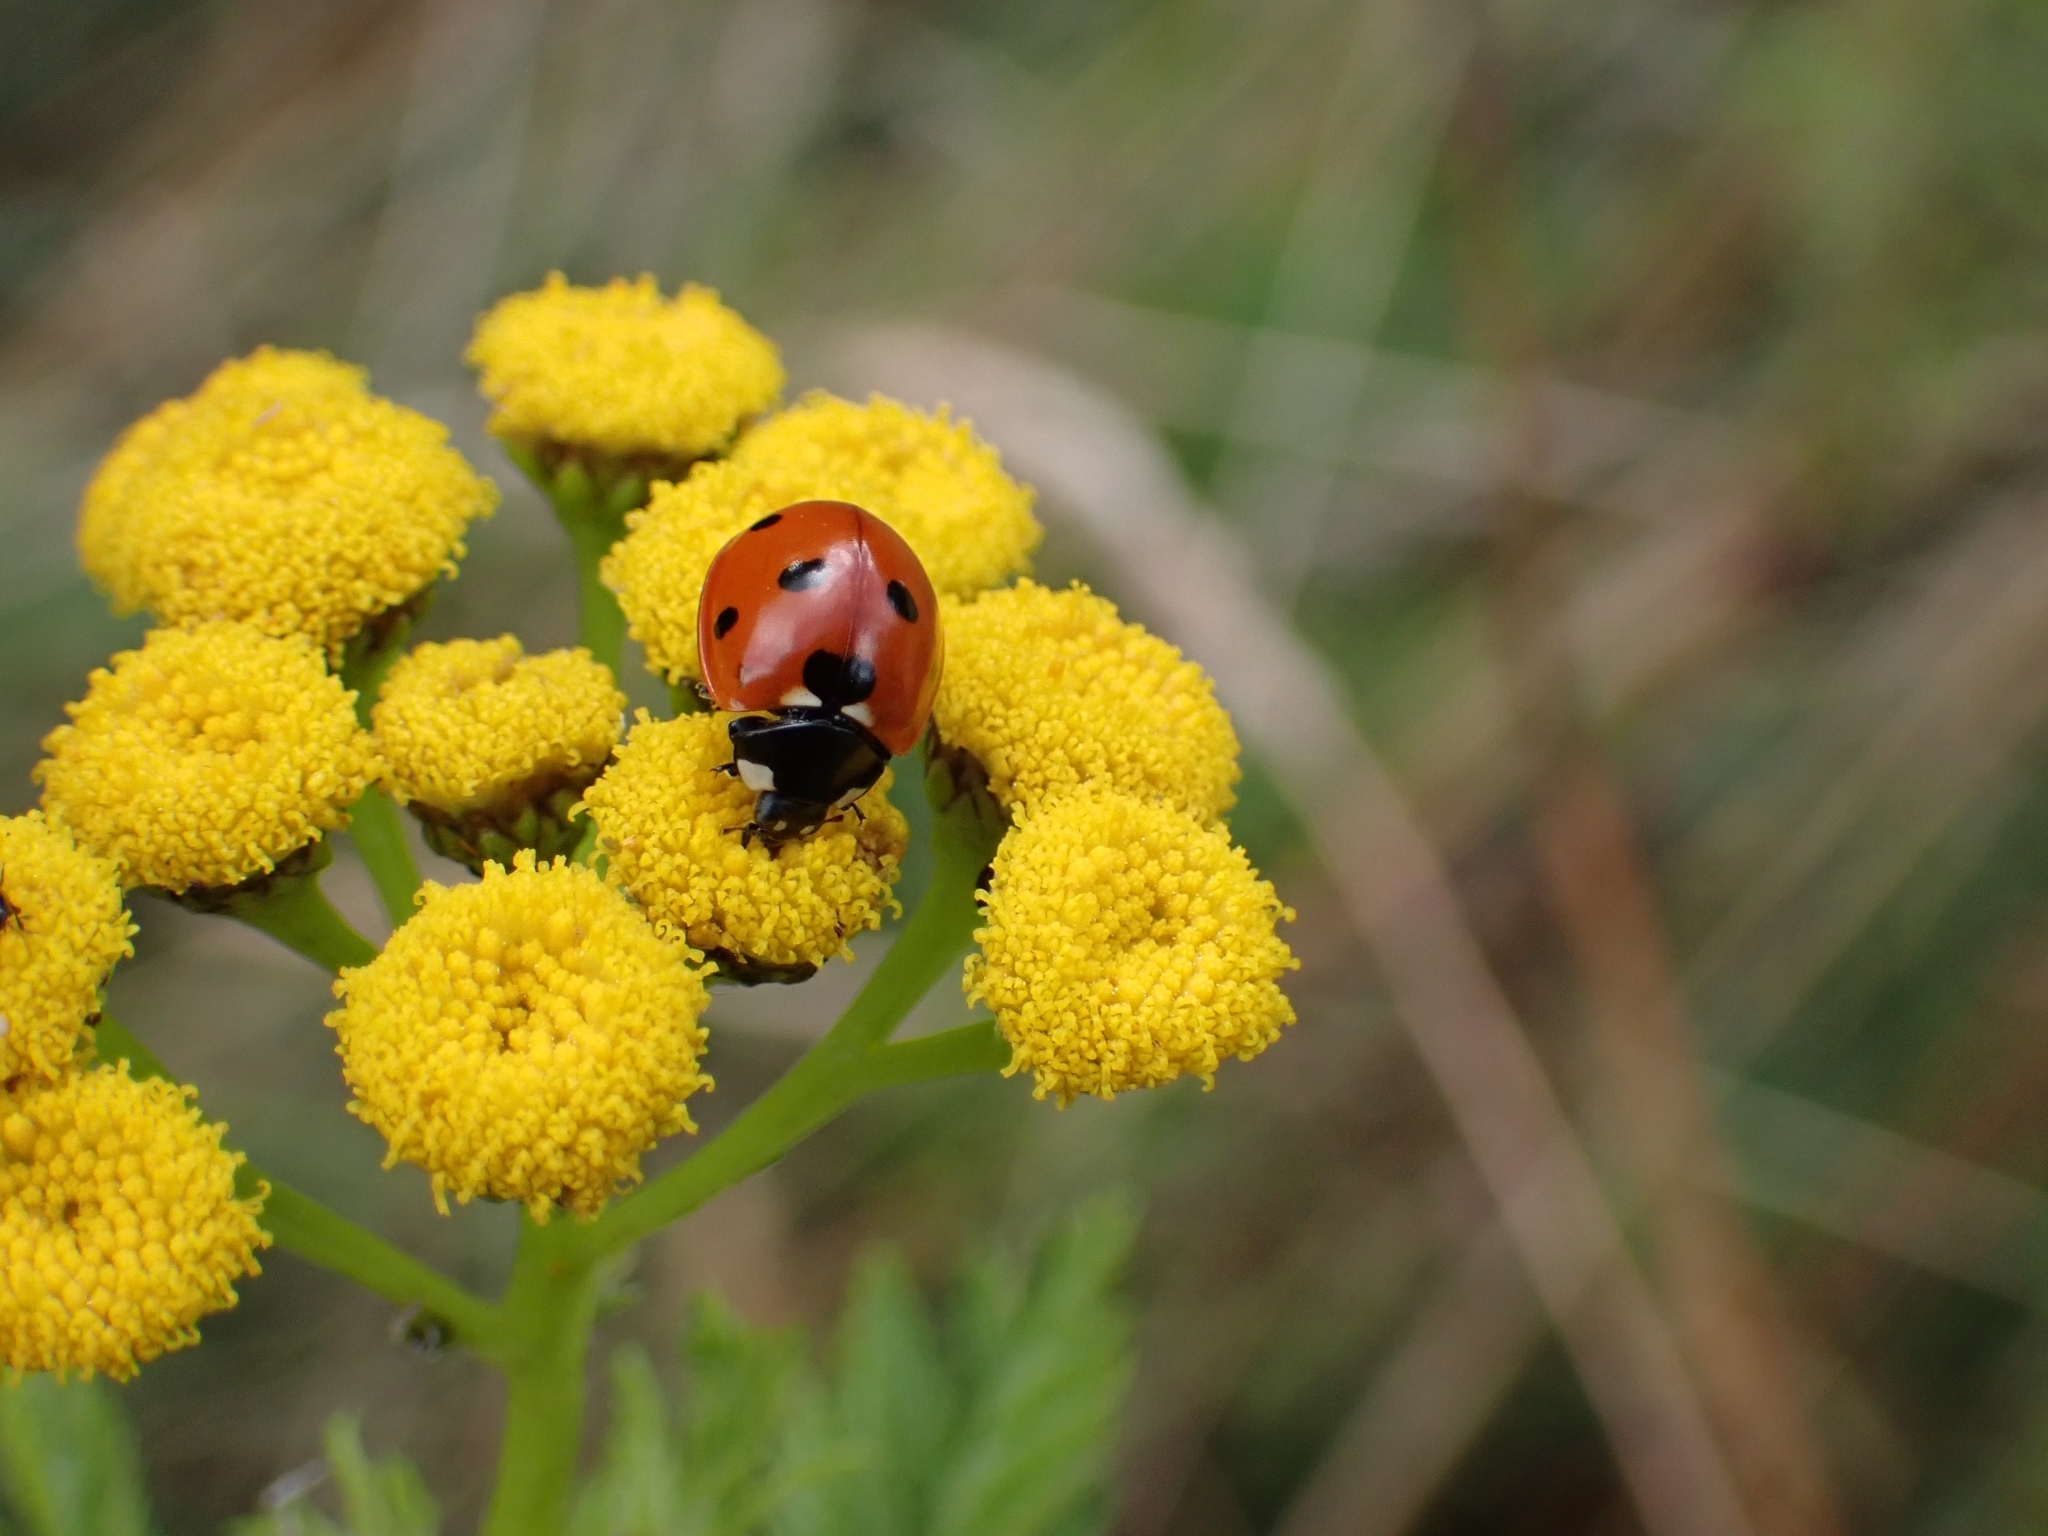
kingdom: Animalia
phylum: Arthropoda
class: Insecta
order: Coleoptera
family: Coccinellidae
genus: Coccinella
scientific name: Coccinella septempunctata
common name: Sevenspotted lady beetle
